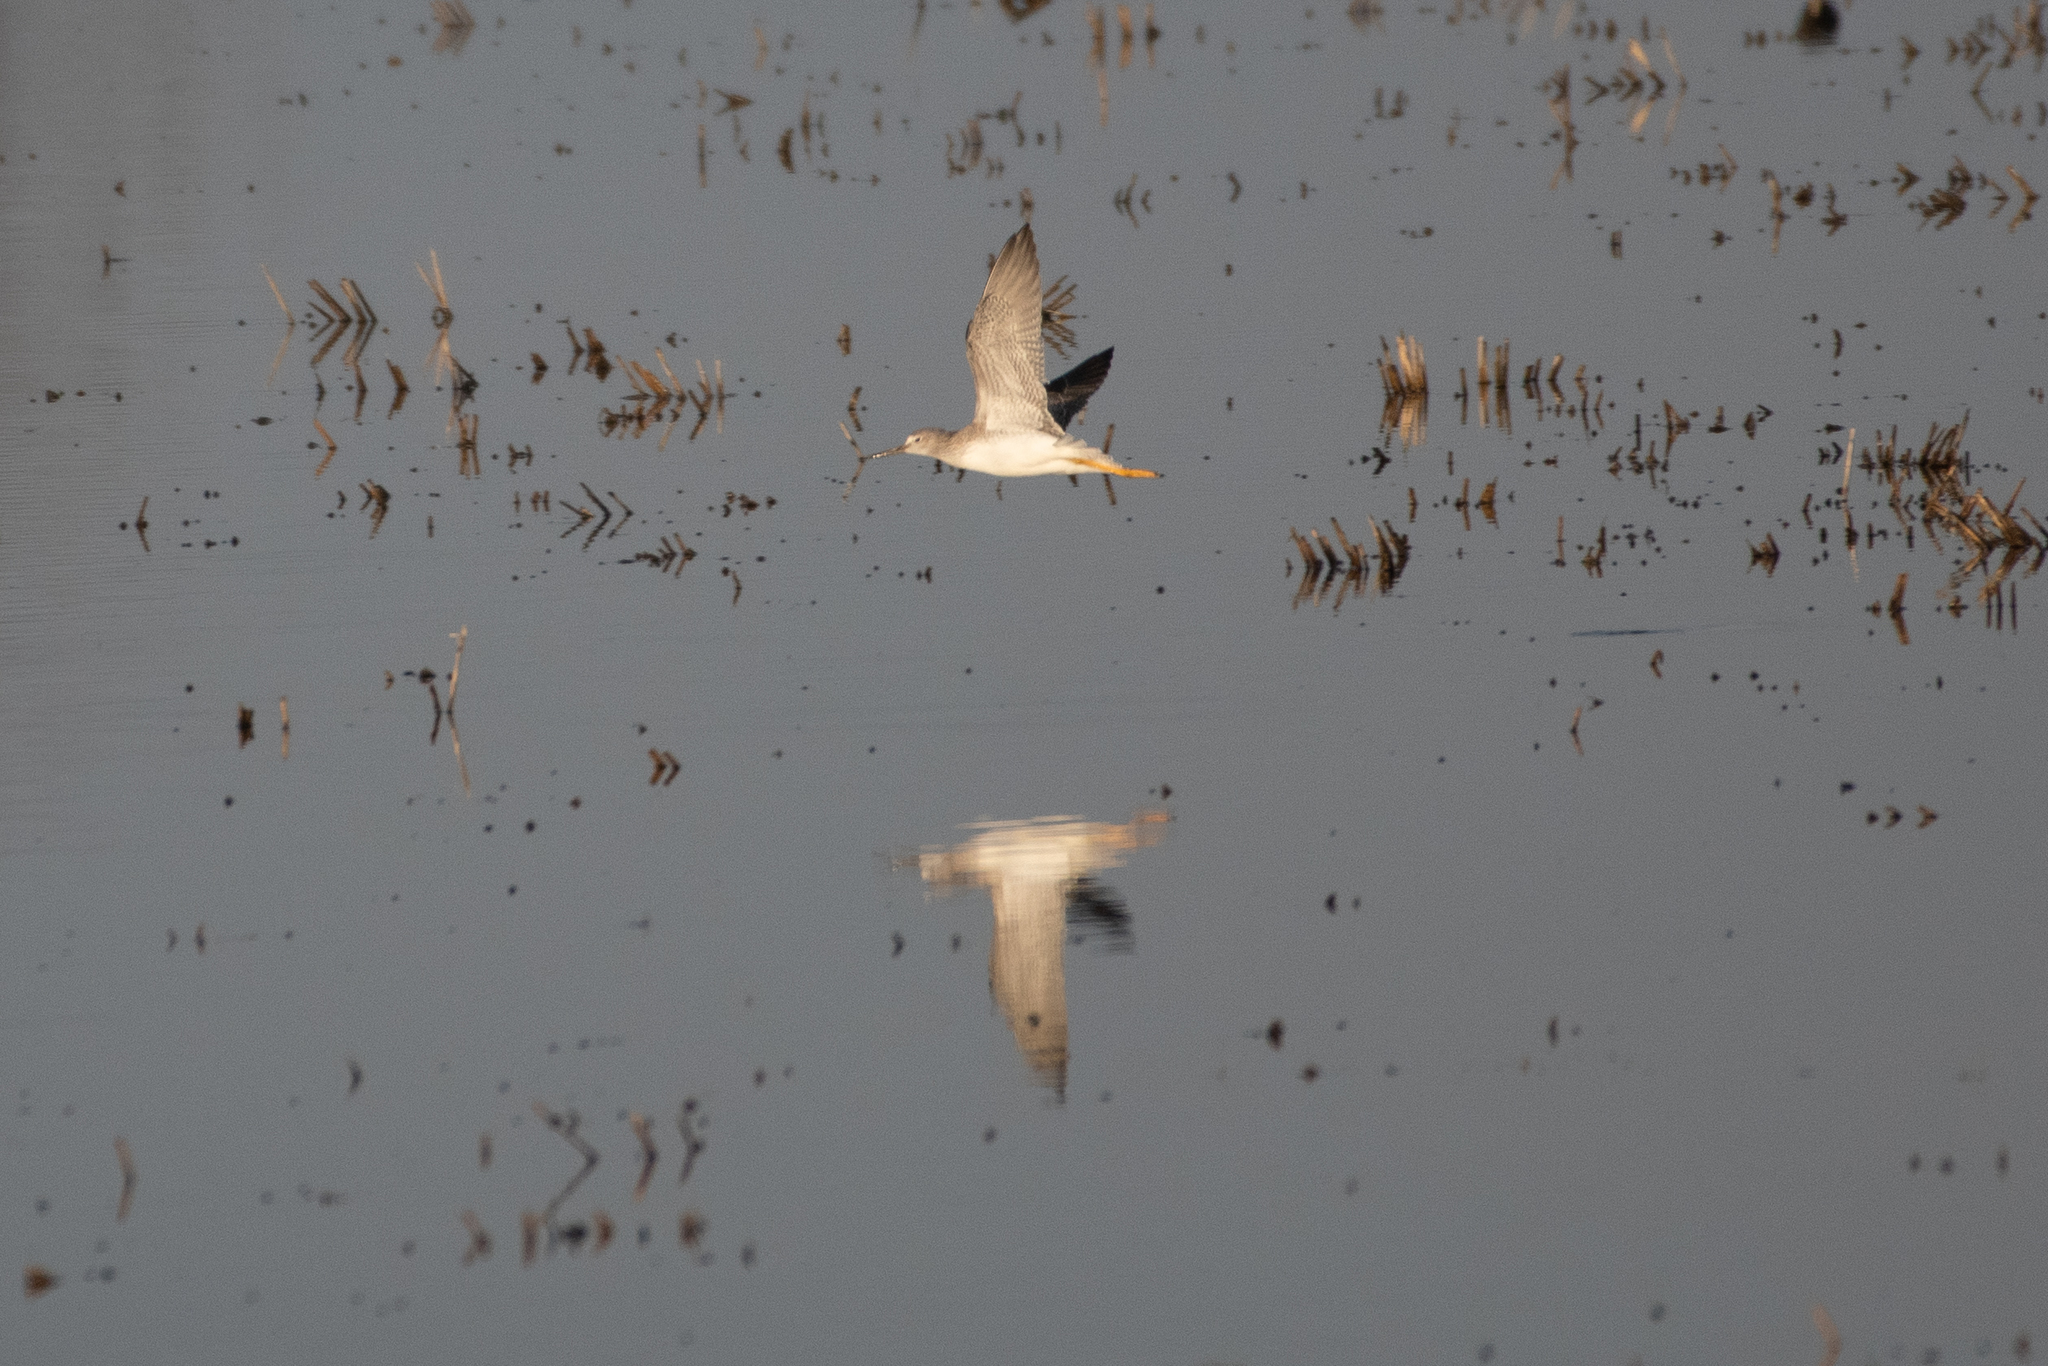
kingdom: Animalia
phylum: Chordata
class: Aves
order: Charadriiformes
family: Scolopacidae
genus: Tringa
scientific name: Tringa melanoleuca
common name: Greater yellowlegs
